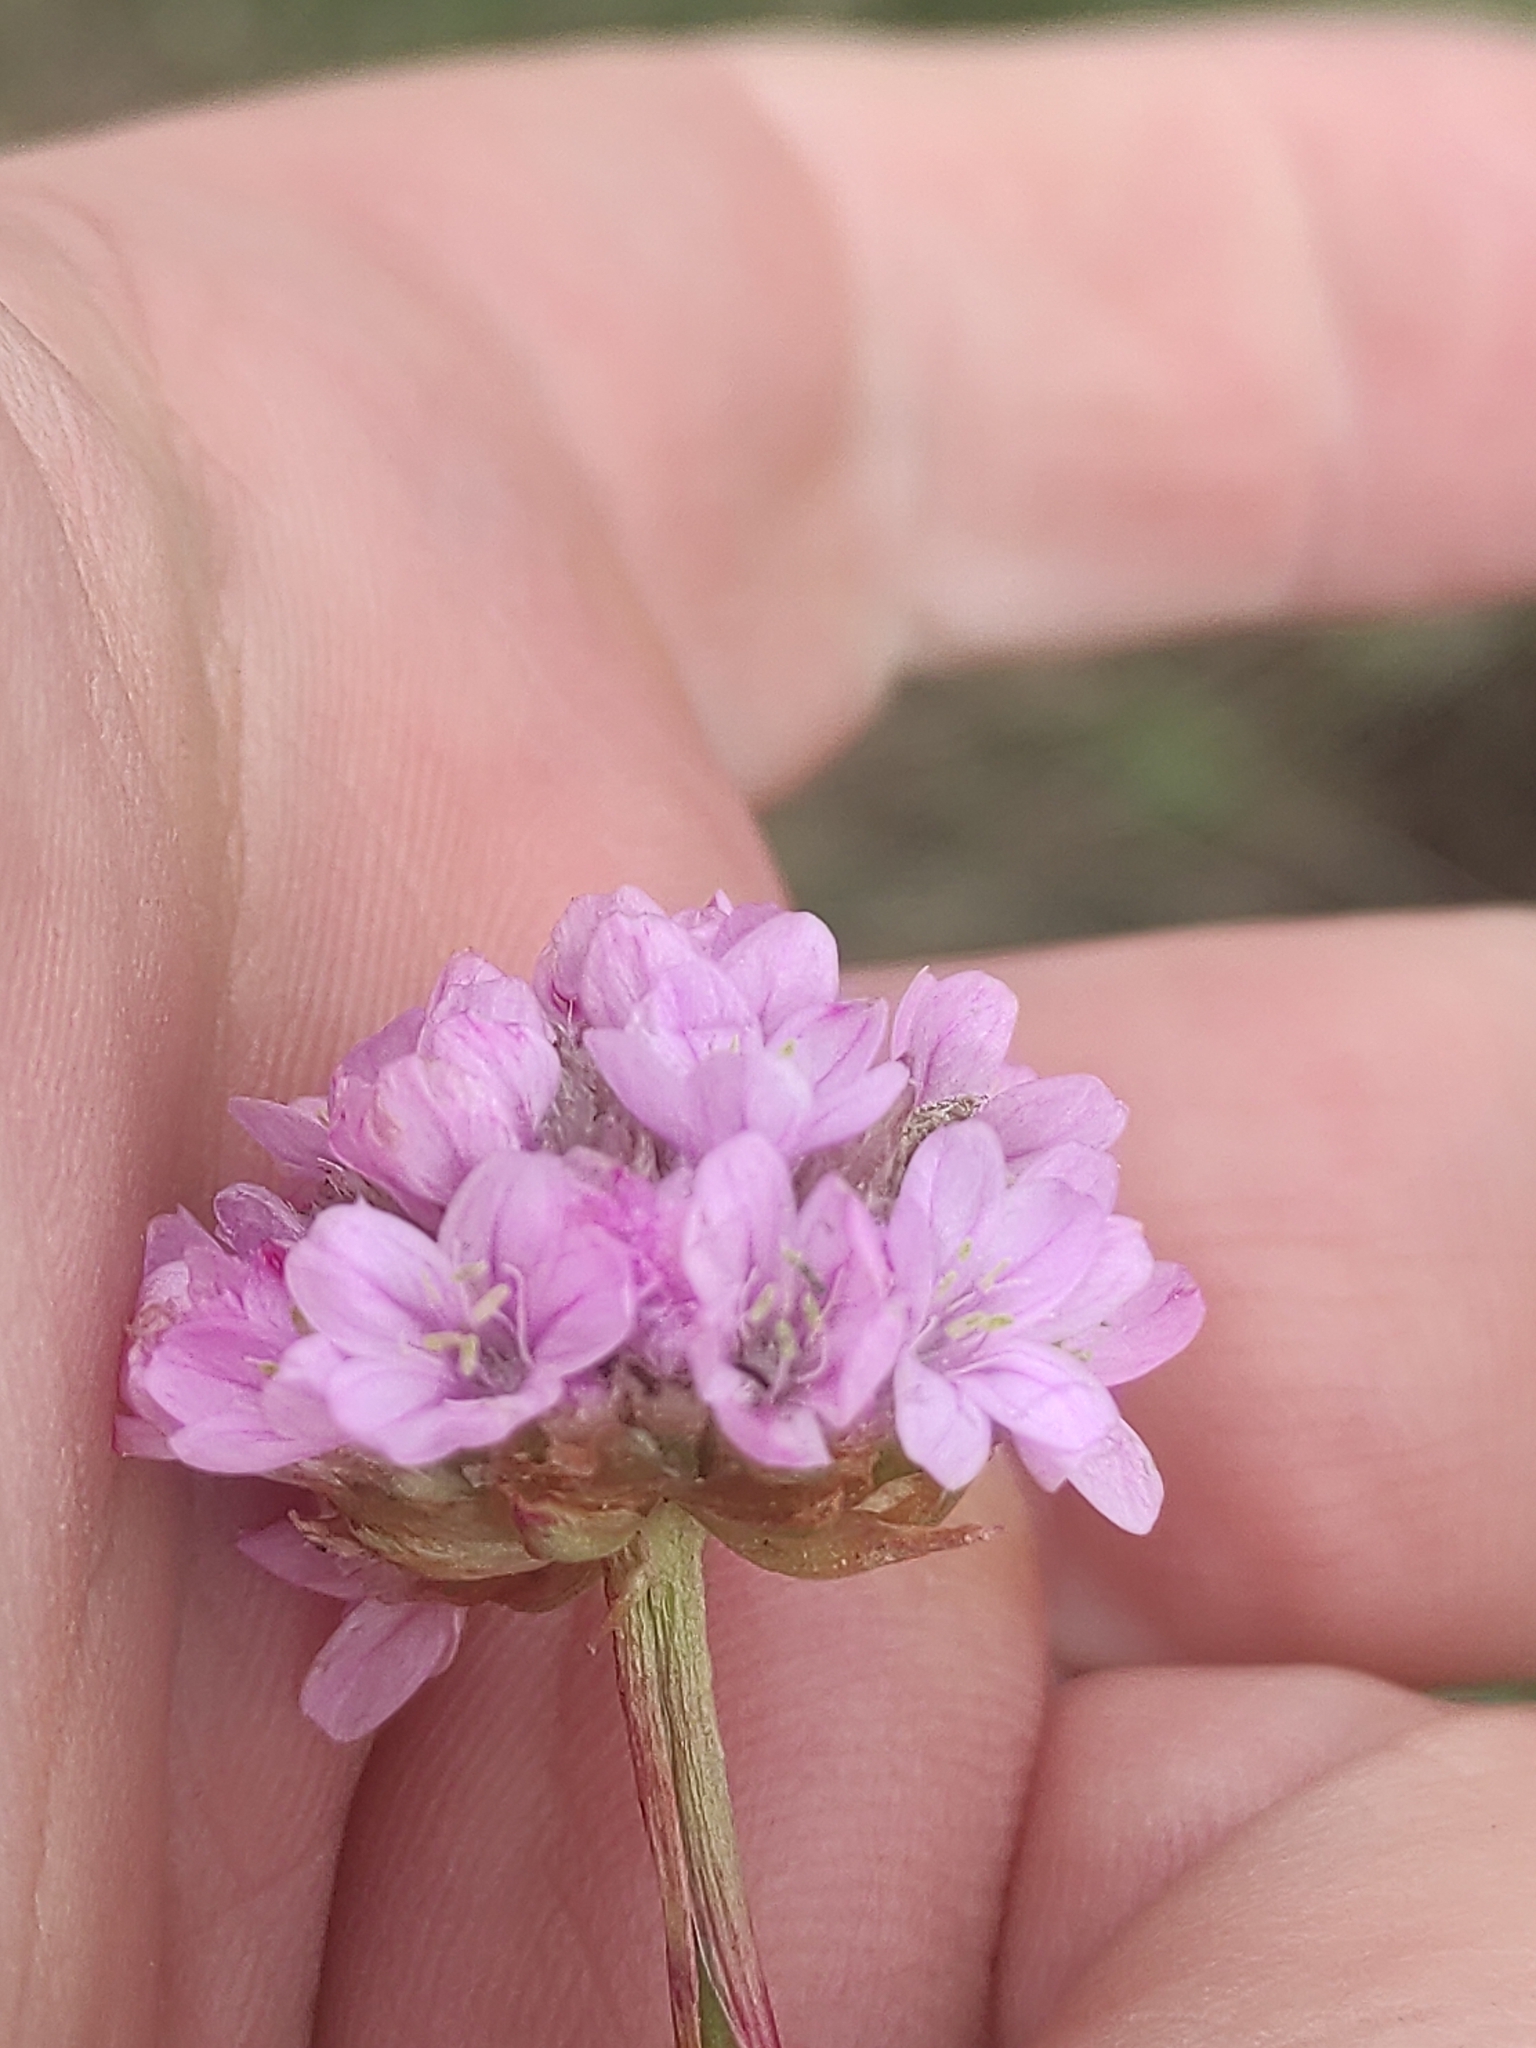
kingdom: Plantae
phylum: Tracheophyta
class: Magnoliopsida
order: Caryophyllales
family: Plumbaginaceae
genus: Armeria
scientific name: Armeria maritima
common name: Thrift
